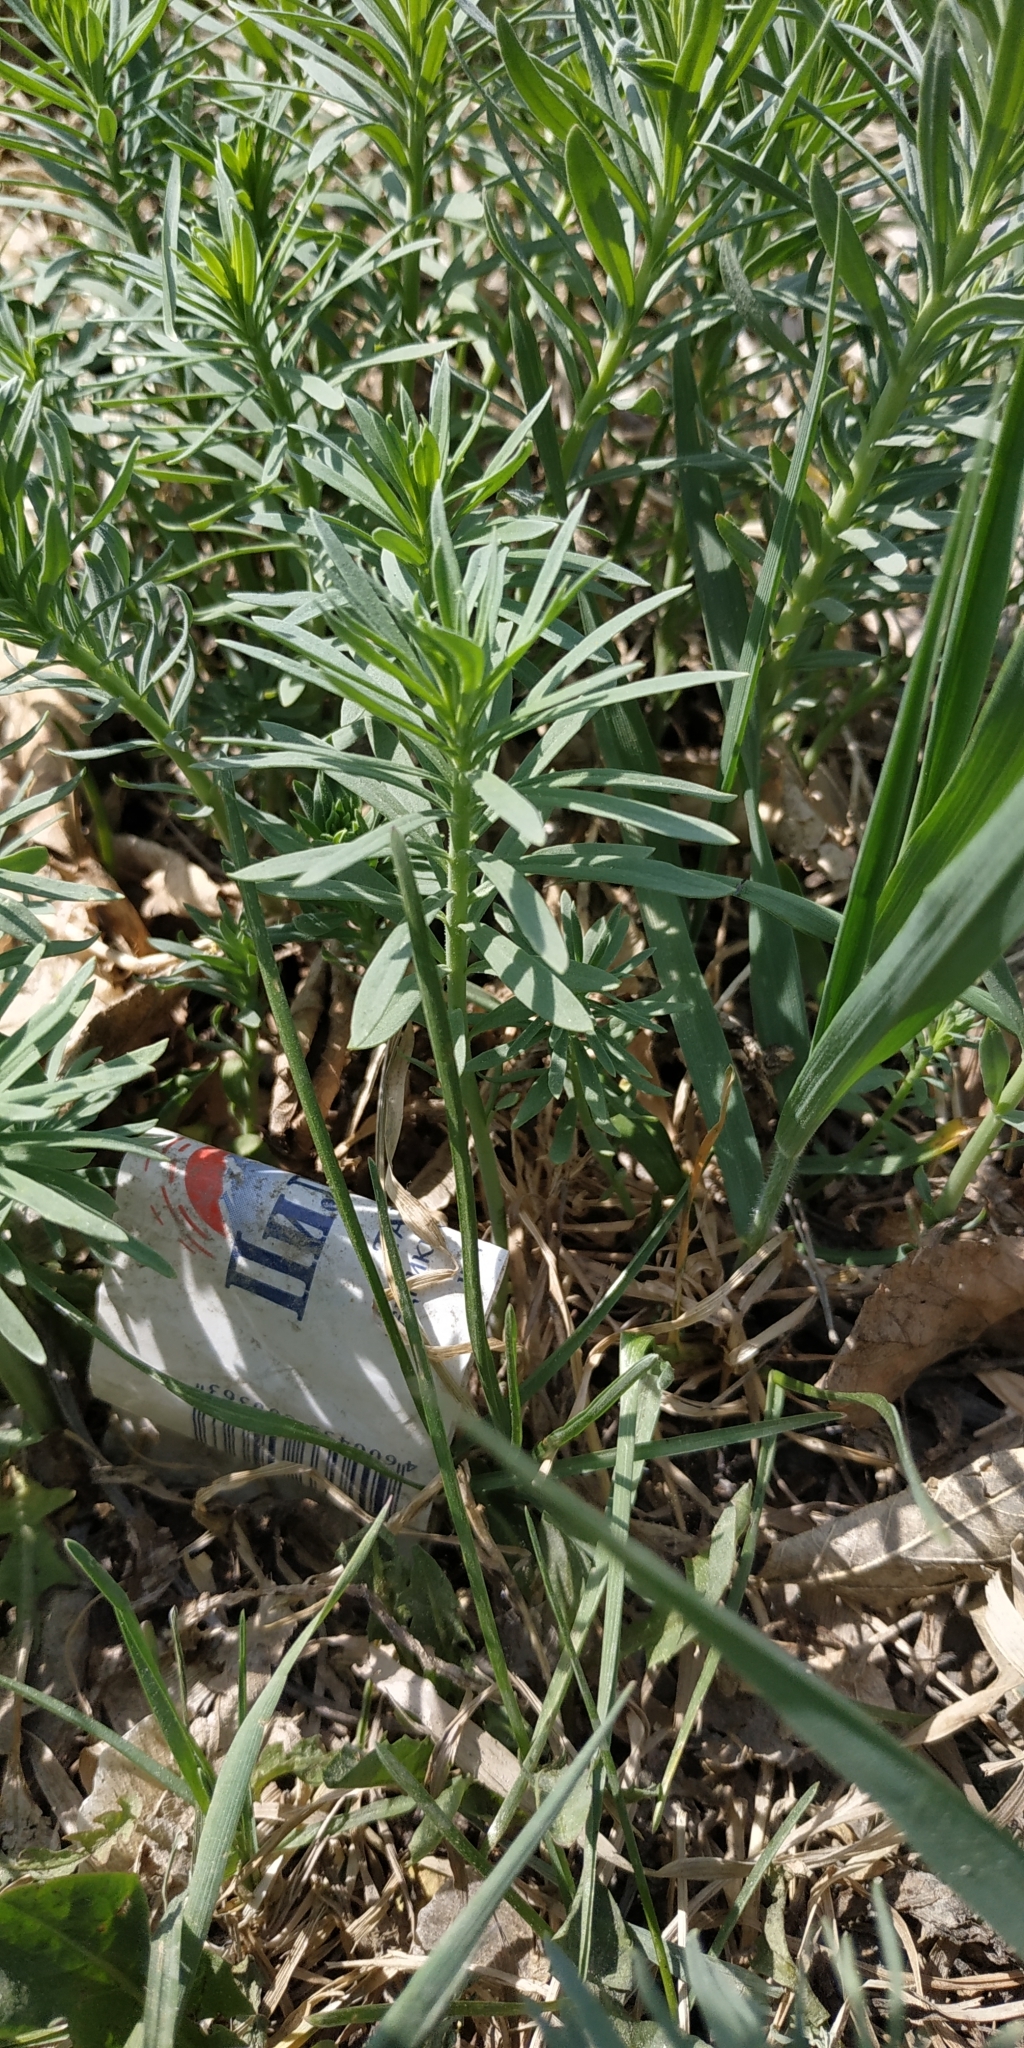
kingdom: Plantae
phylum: Tracheophyta
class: Magnoliopsida
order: Lamiales
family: Plantaginaceae
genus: Linaria
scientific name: Linaria vulgaris
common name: Butter and eggs
